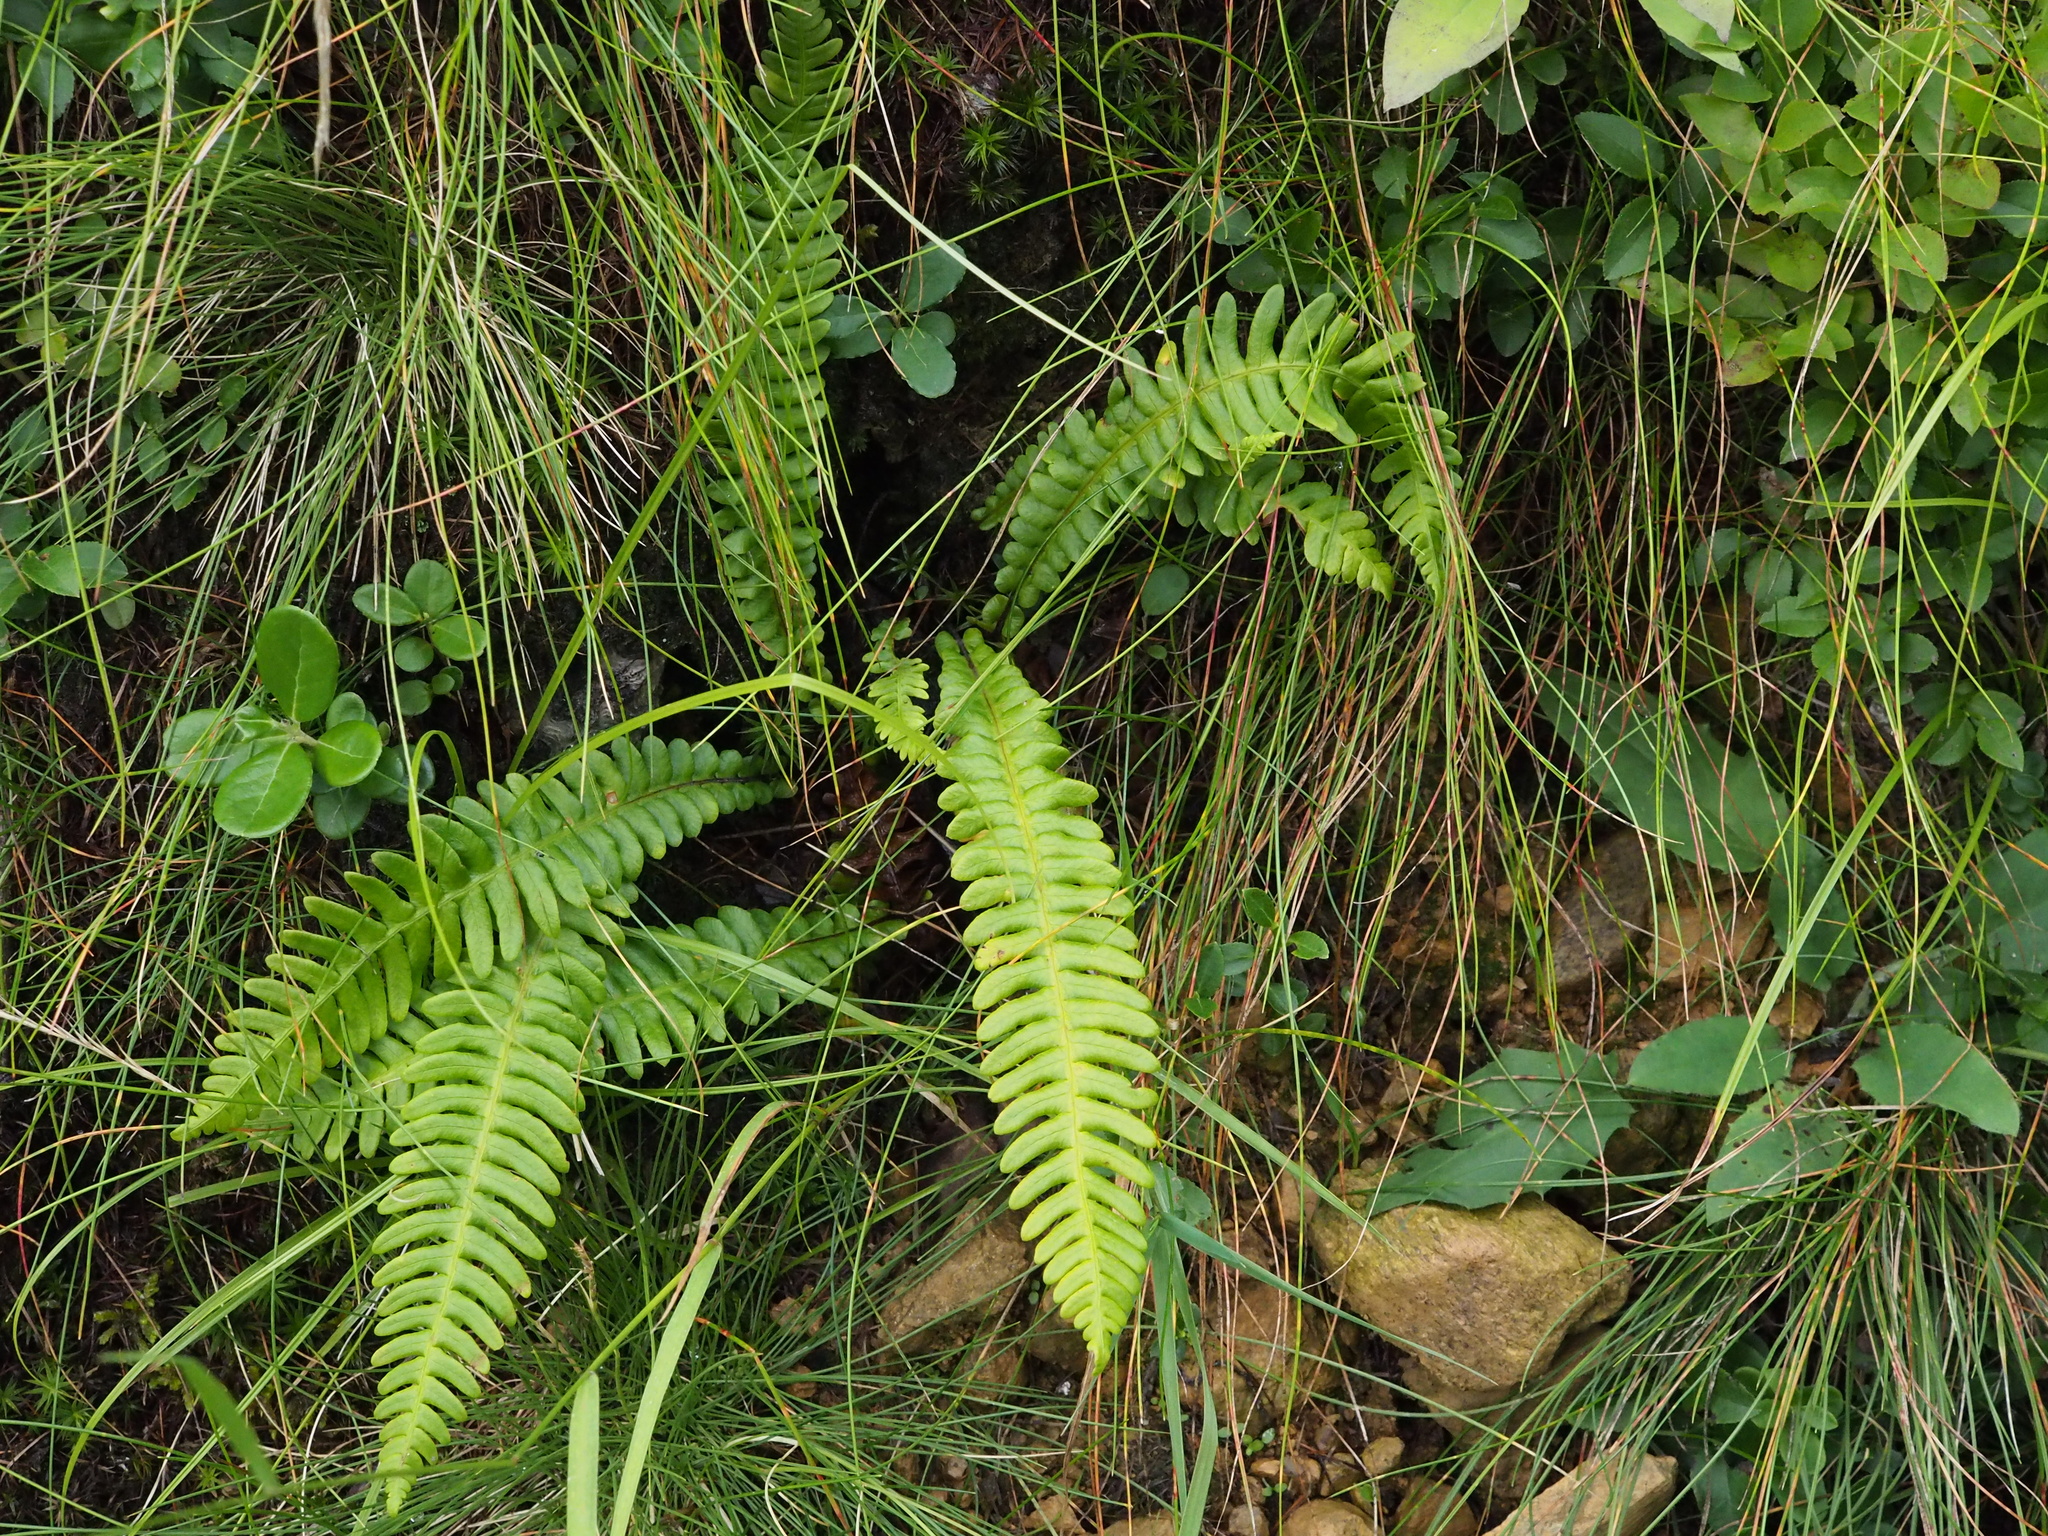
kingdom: Plantae
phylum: Tracheophyta
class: Polypodiopsida
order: Polypodiales
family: Blechnaceae
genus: Struthiopteris
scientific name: Struthiopteris spicant
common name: Deer fern
